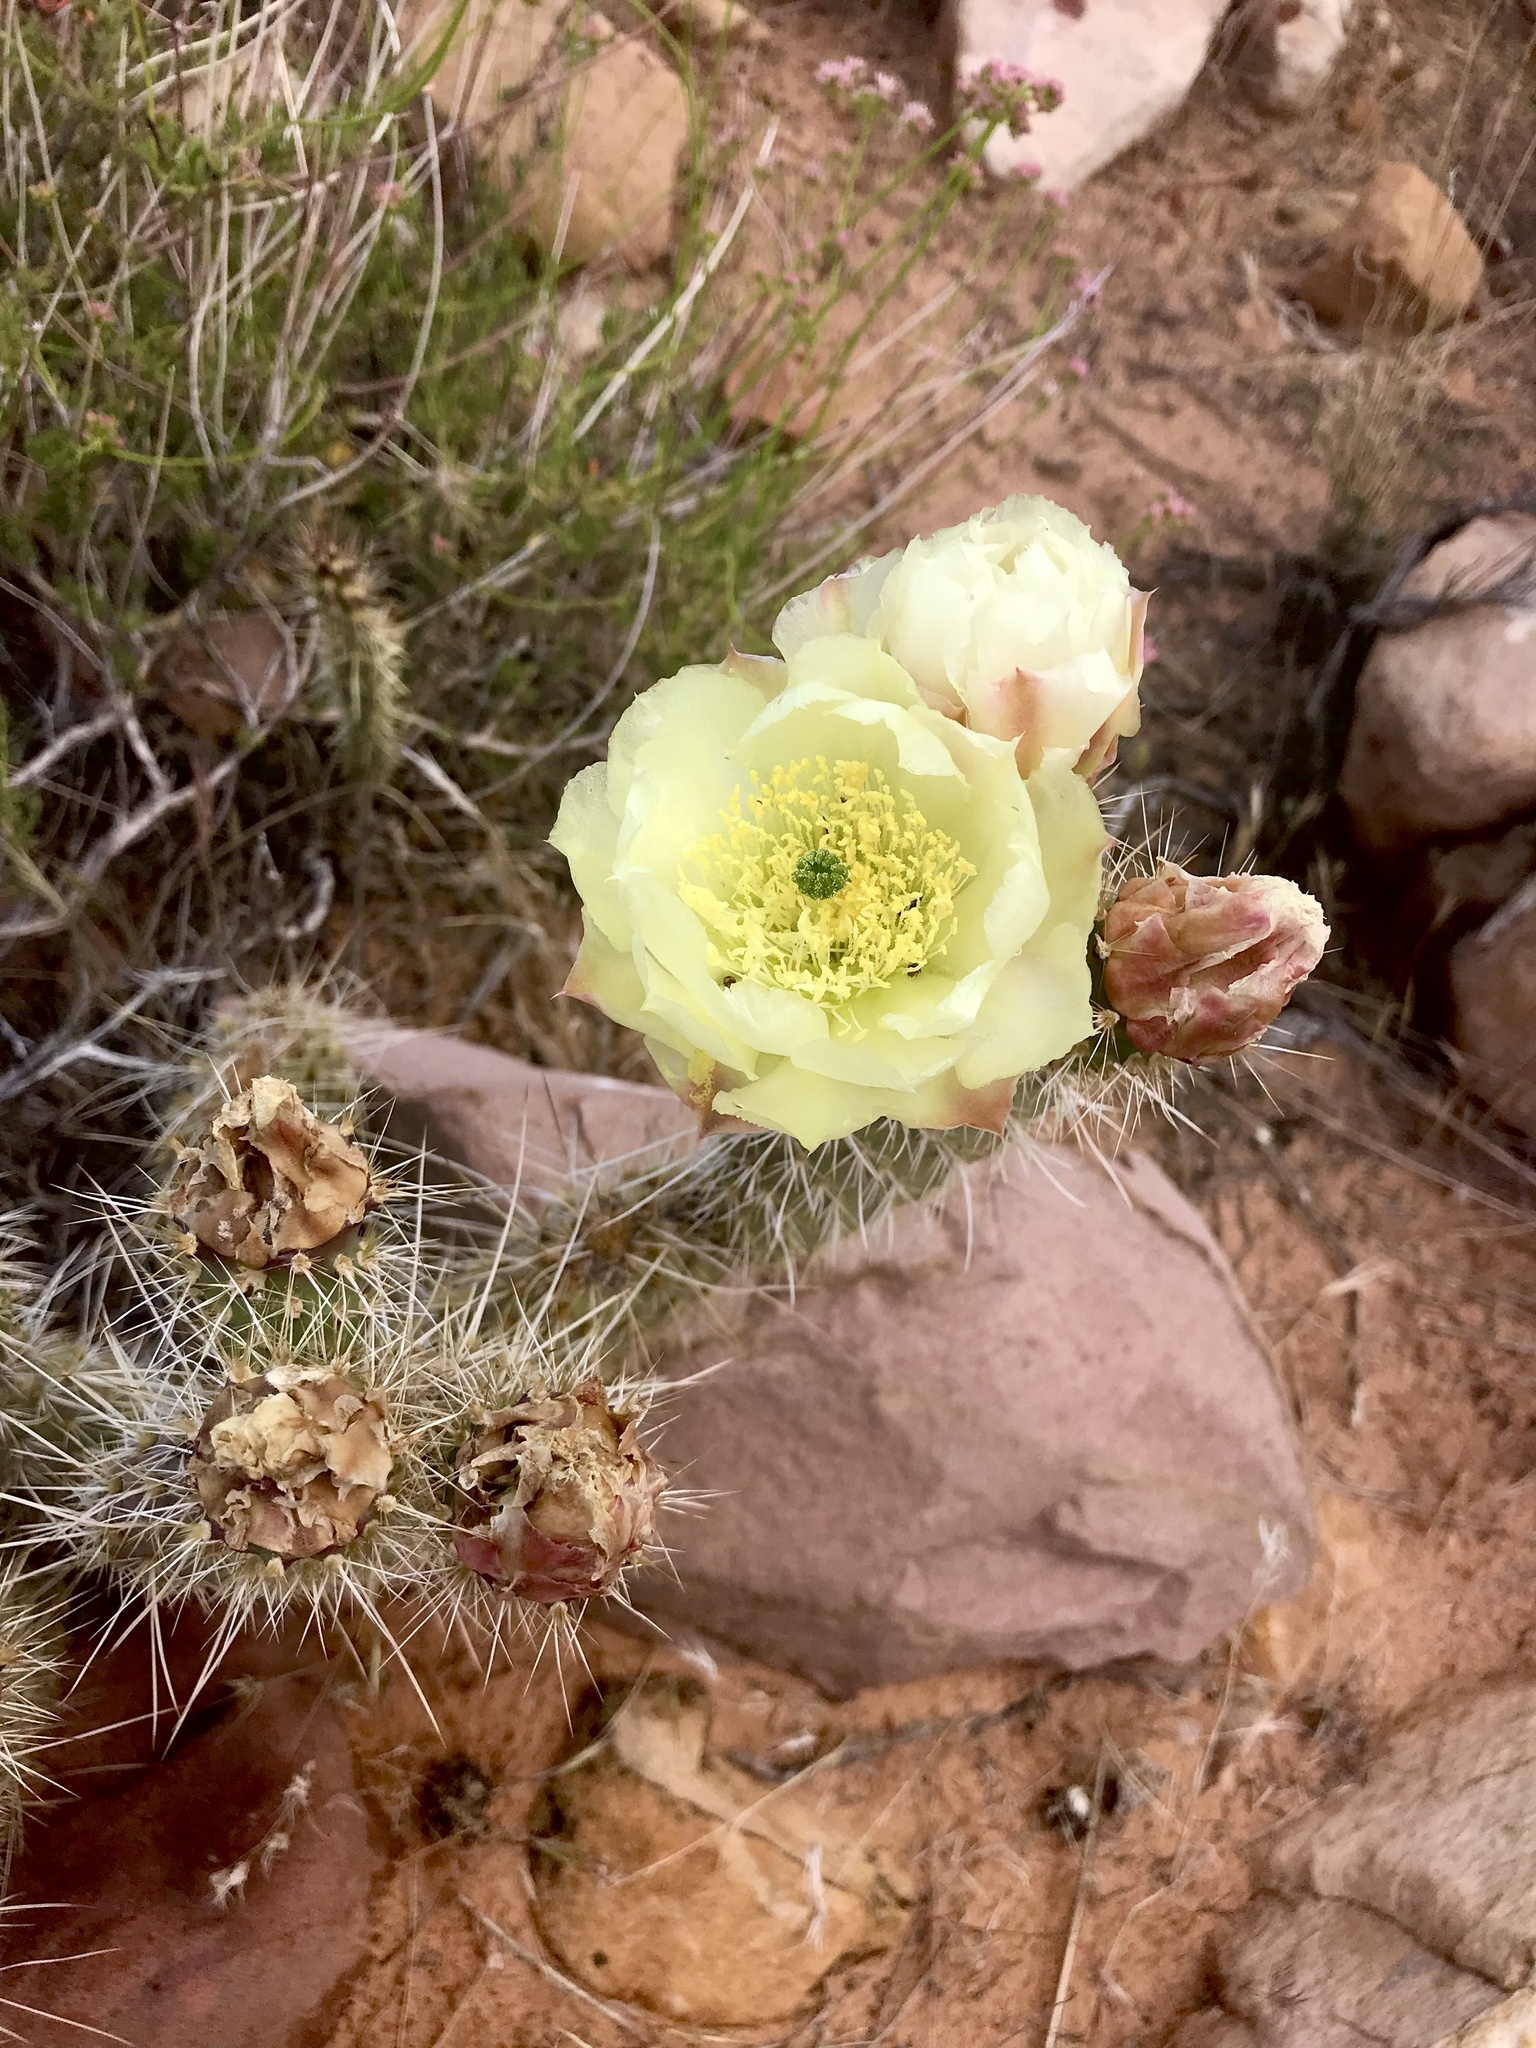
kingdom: Plantae
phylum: Tracheophyta
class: Magnoliopsida
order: Caryophyllales
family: Cactaceae
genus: Opuntia
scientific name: Opuntia polyacantha
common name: Plains prickly-pear
